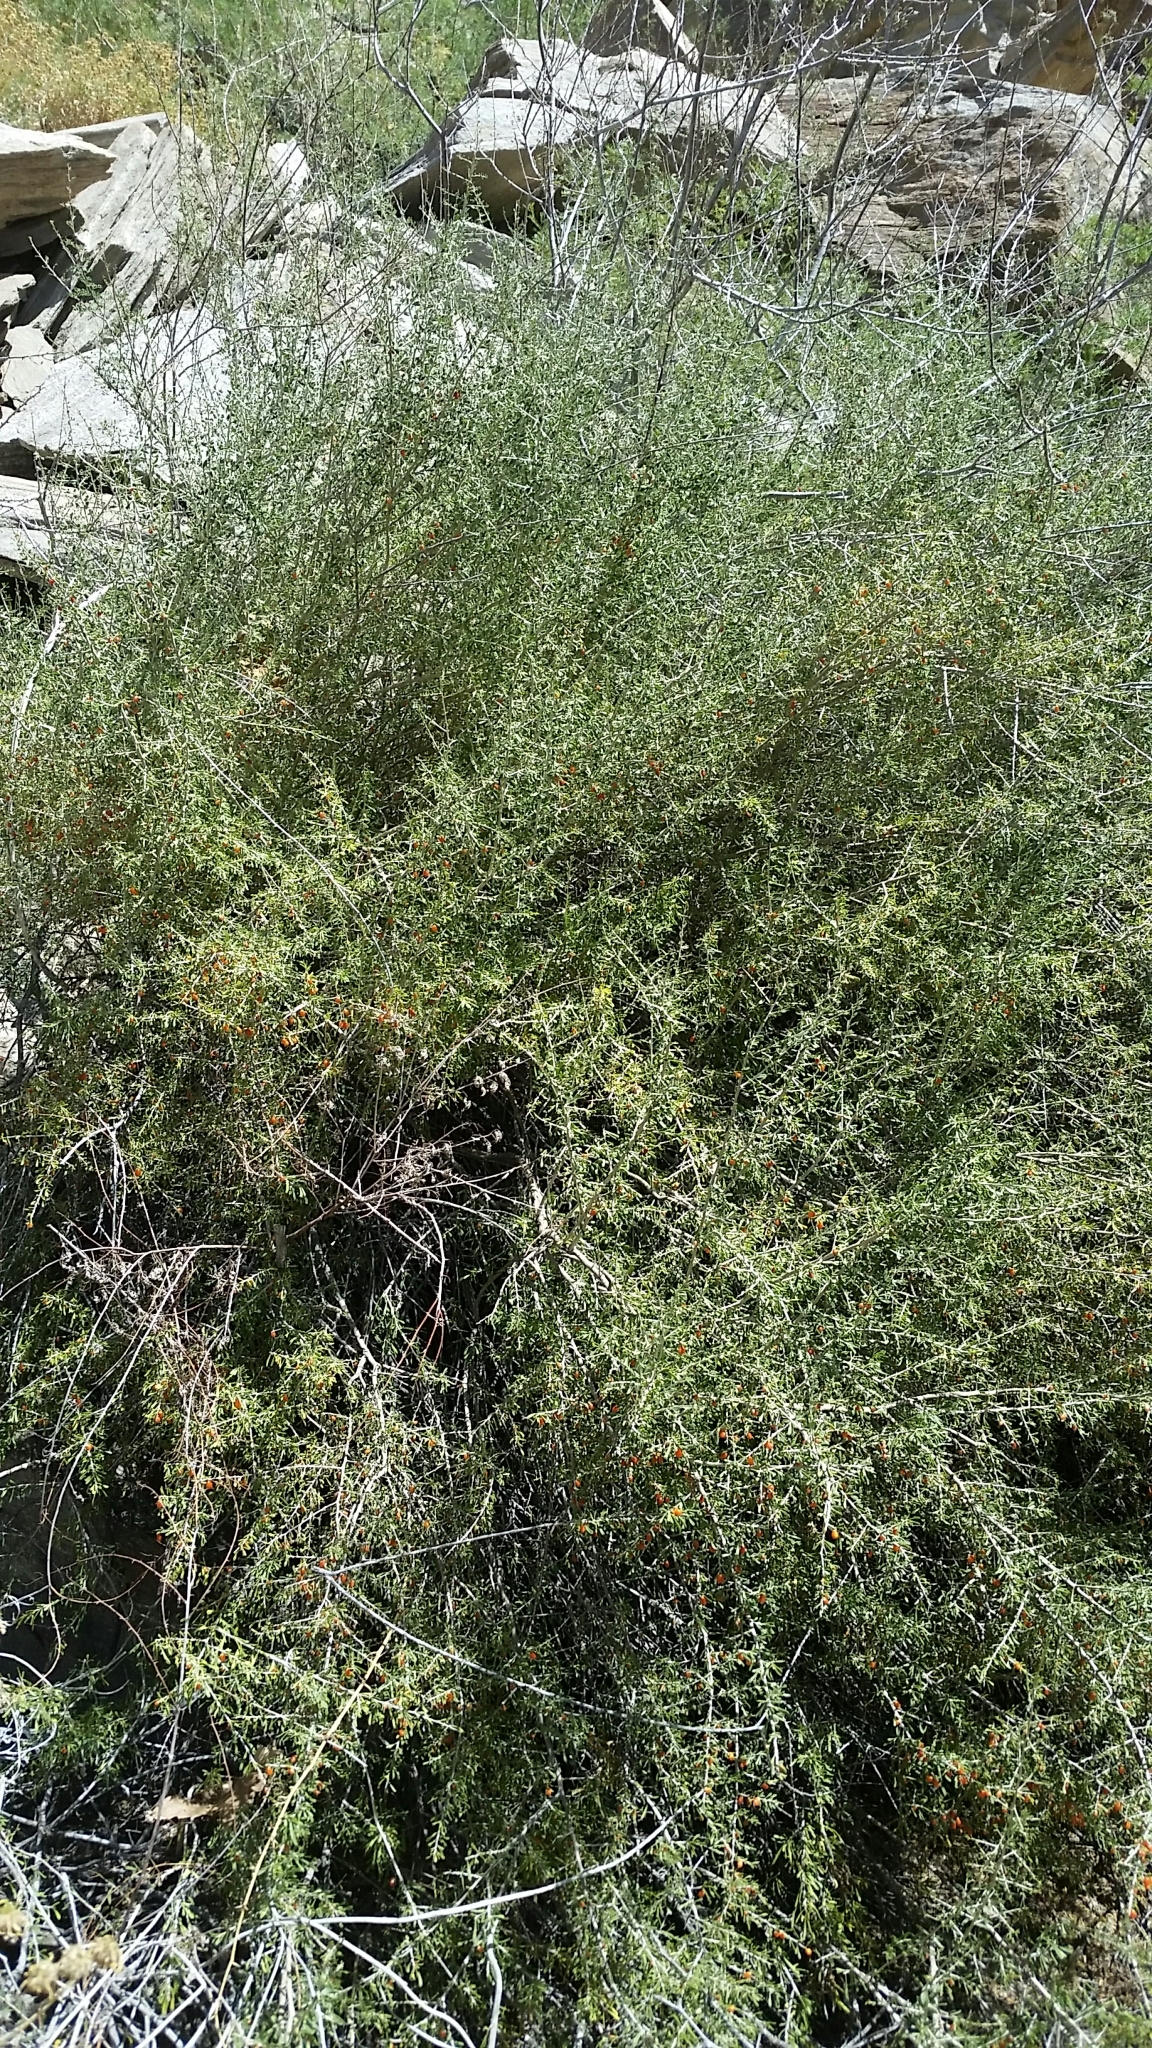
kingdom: Plantae
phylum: Tracheophyta
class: Magnoliopsida
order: Solanales
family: Solanaceae
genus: Lycium
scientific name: Lycium andersonii
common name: Water-jacket
